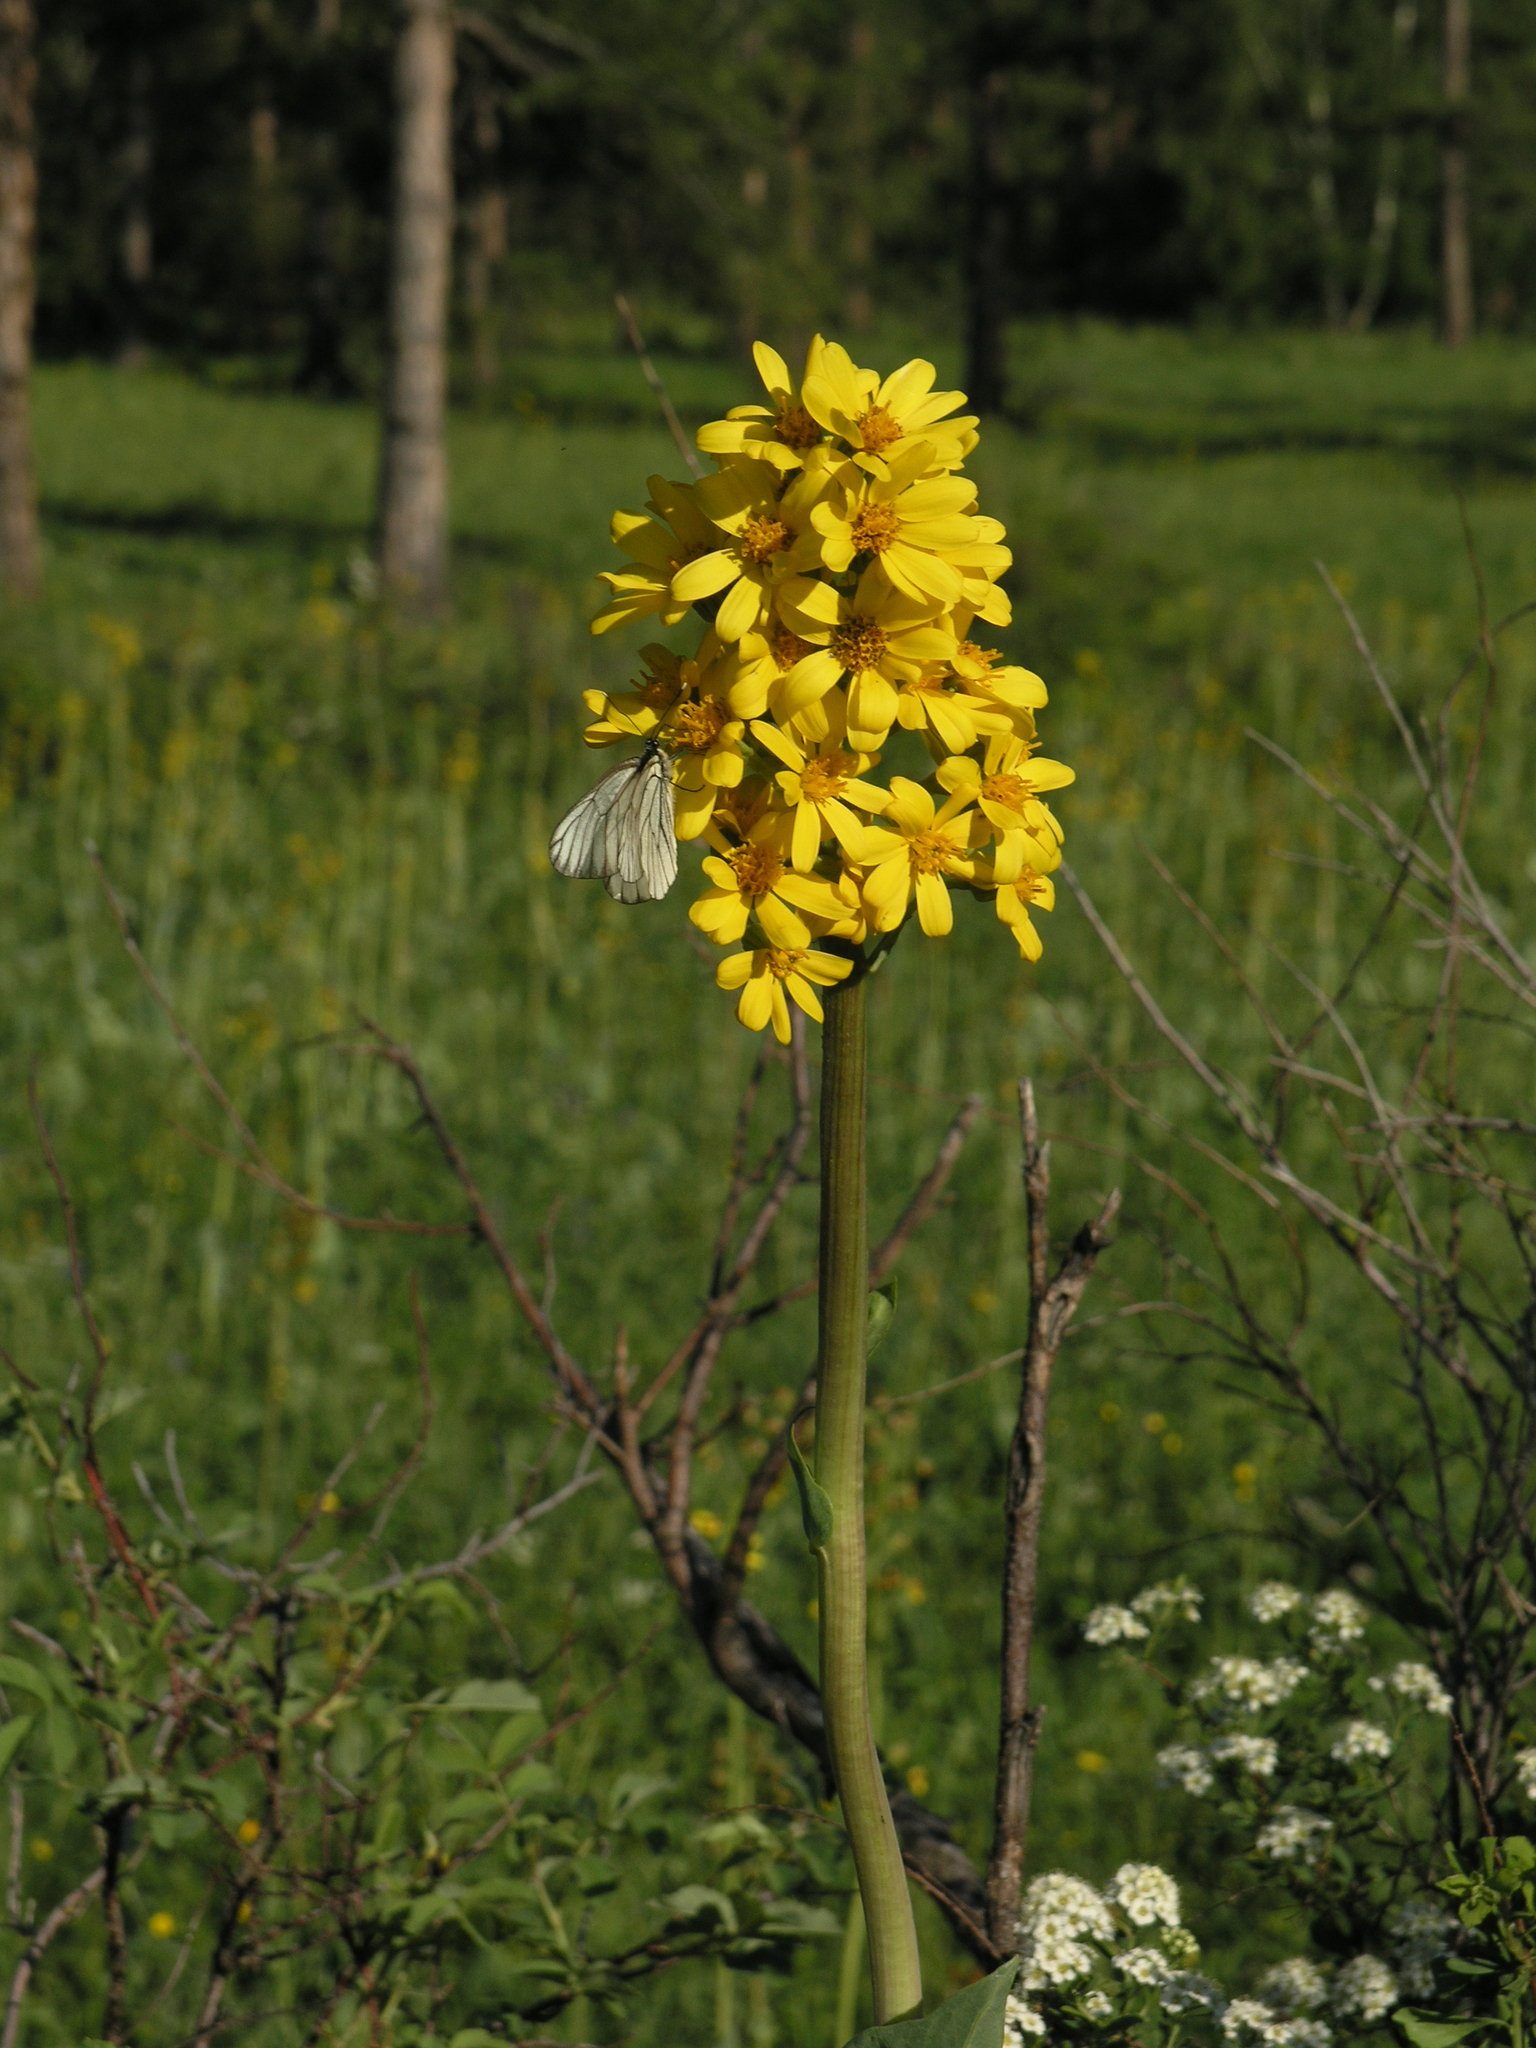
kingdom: Plantae
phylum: Tracheophyta
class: Magnoliopsida
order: Asterales
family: Asteraceae
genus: Ligularia
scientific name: Ligularia glauca
